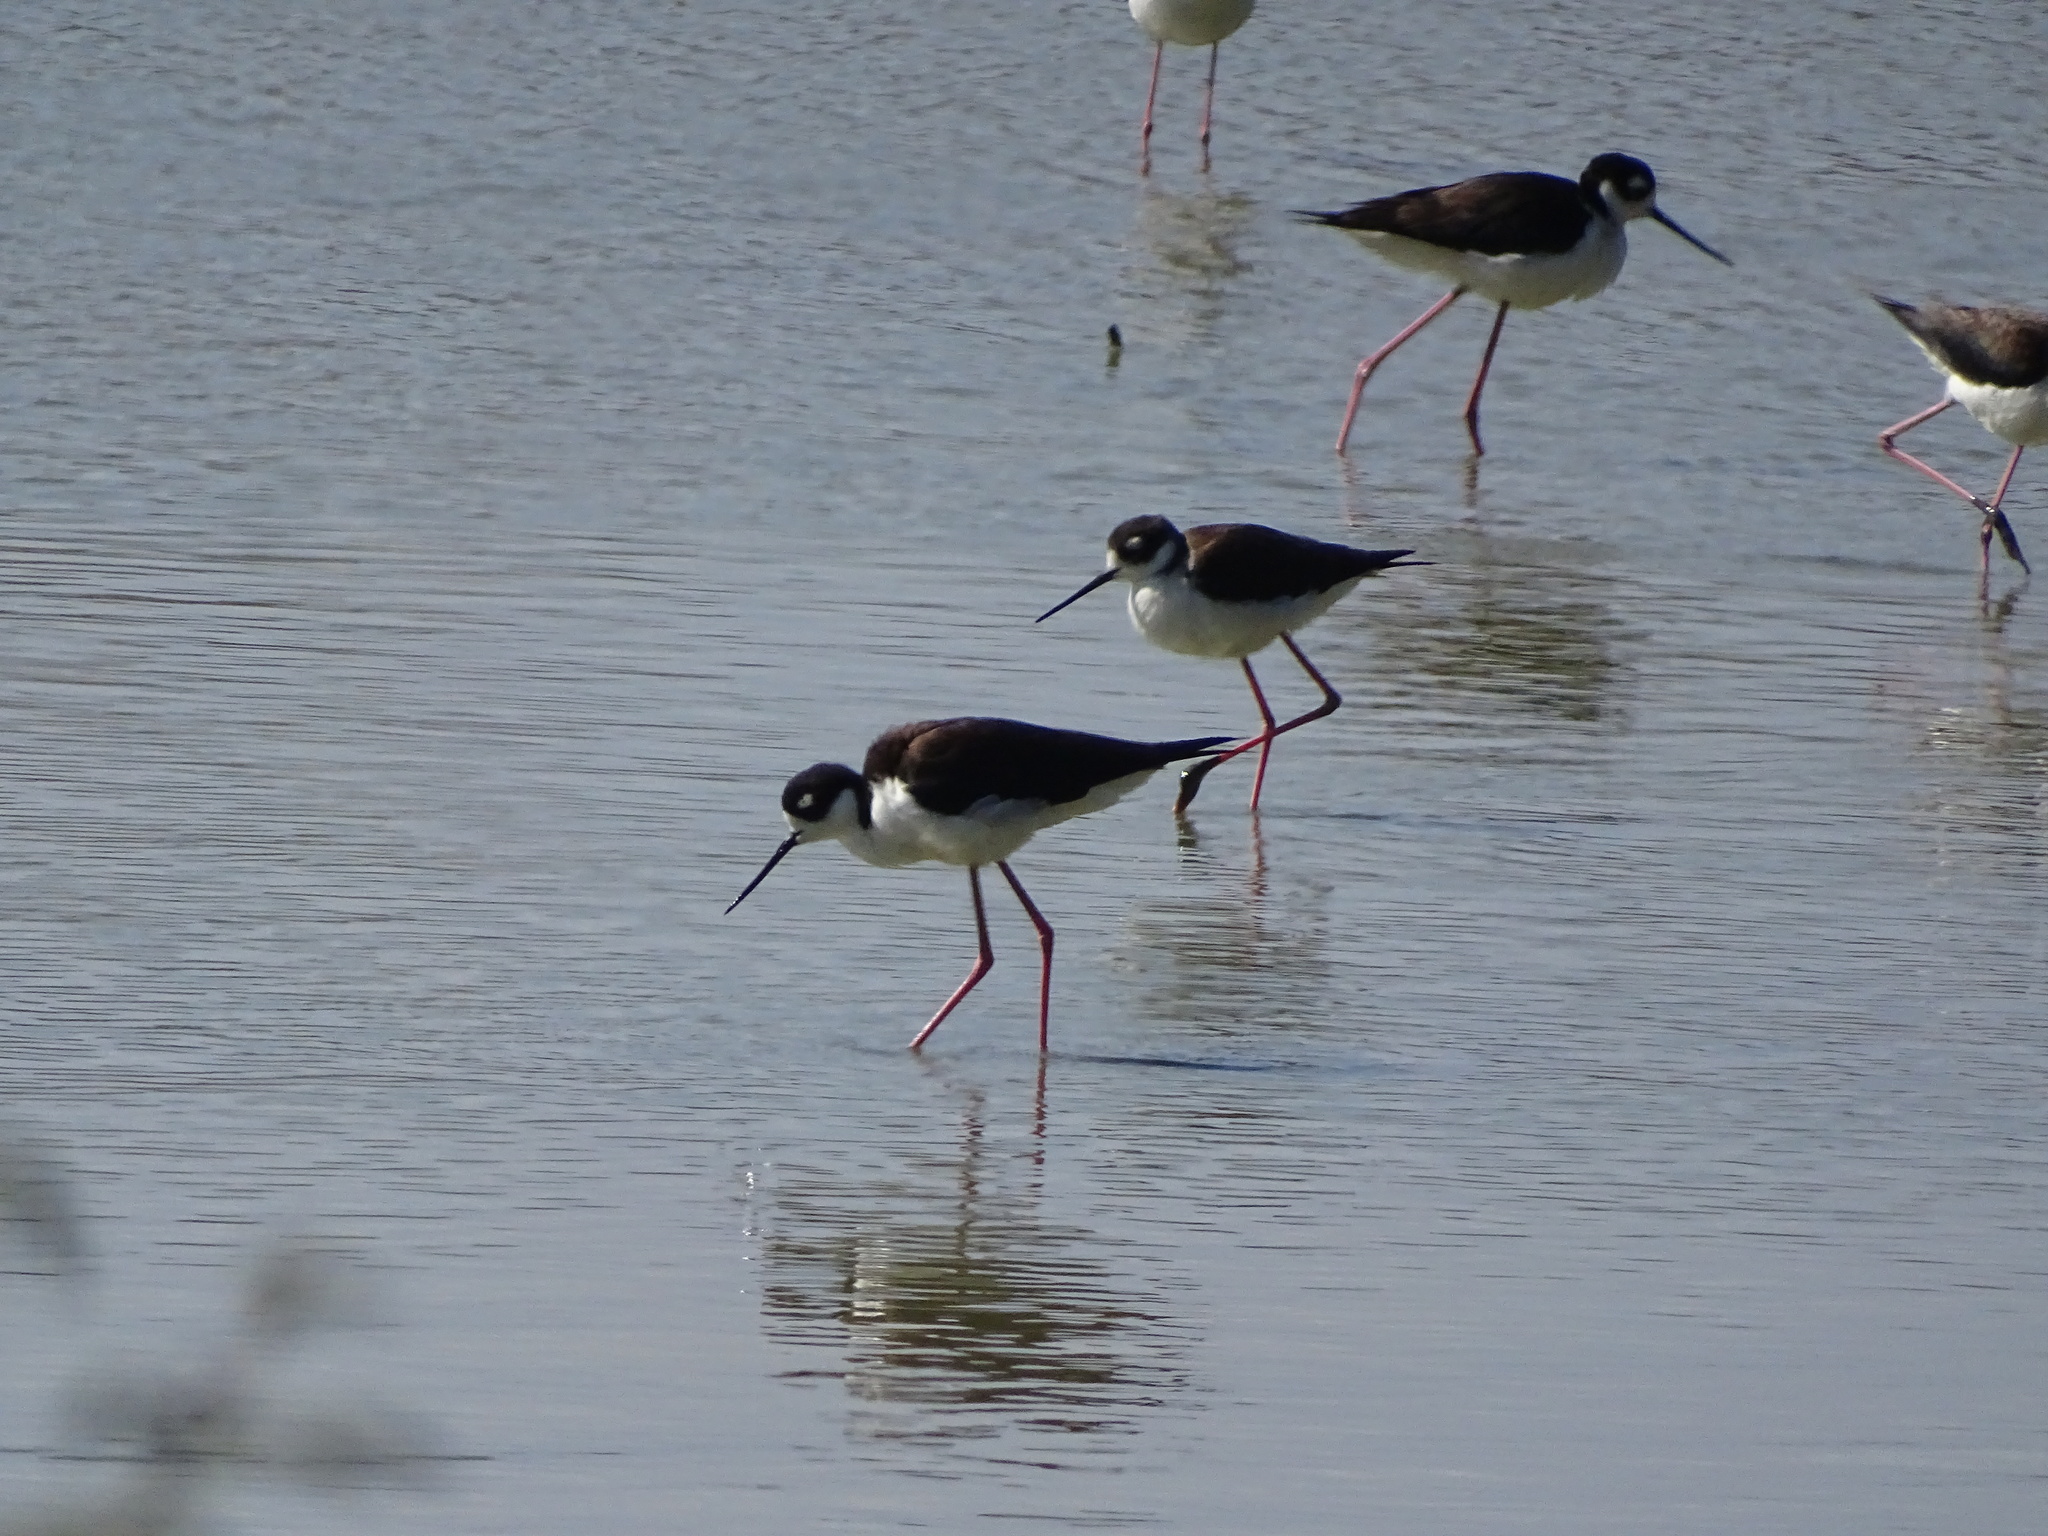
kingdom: Animalia
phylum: Chordata
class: Aves
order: Charadriiformes
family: Recurvirostridae
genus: Himantopus
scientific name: Himantopus mexicanus
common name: Black-necked stilt
